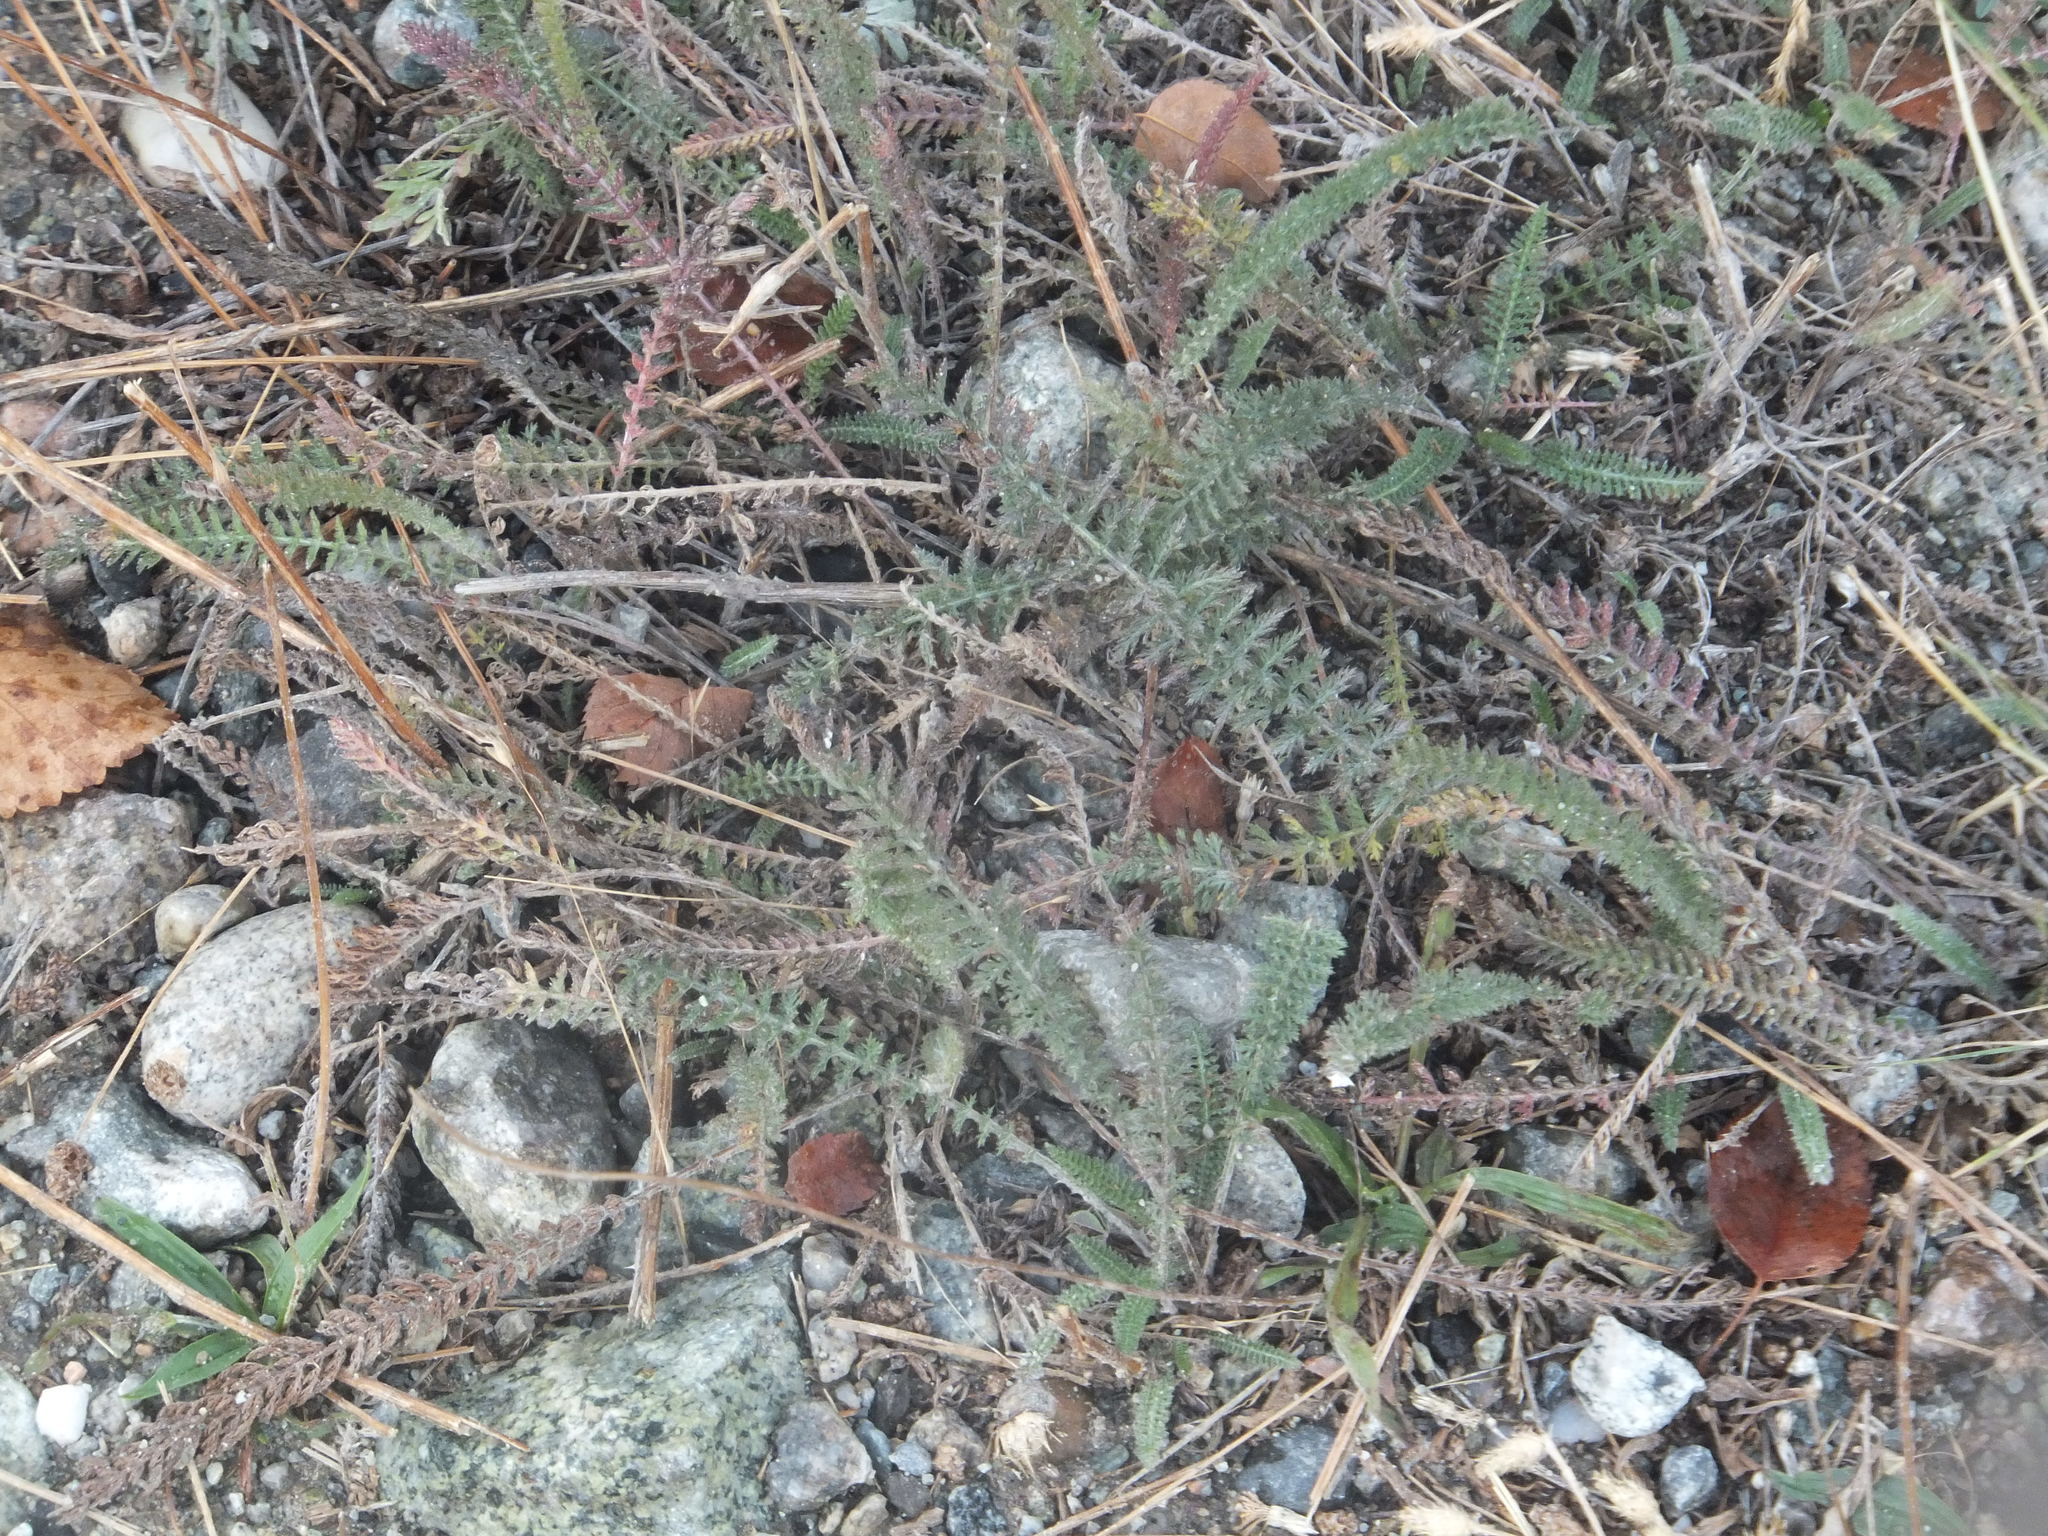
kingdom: Plantae
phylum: Tracheophyta
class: Magnoliopsida
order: Asterales
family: Asteraceae
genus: Achillea
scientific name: Achillea millefolium
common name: Yarrow
